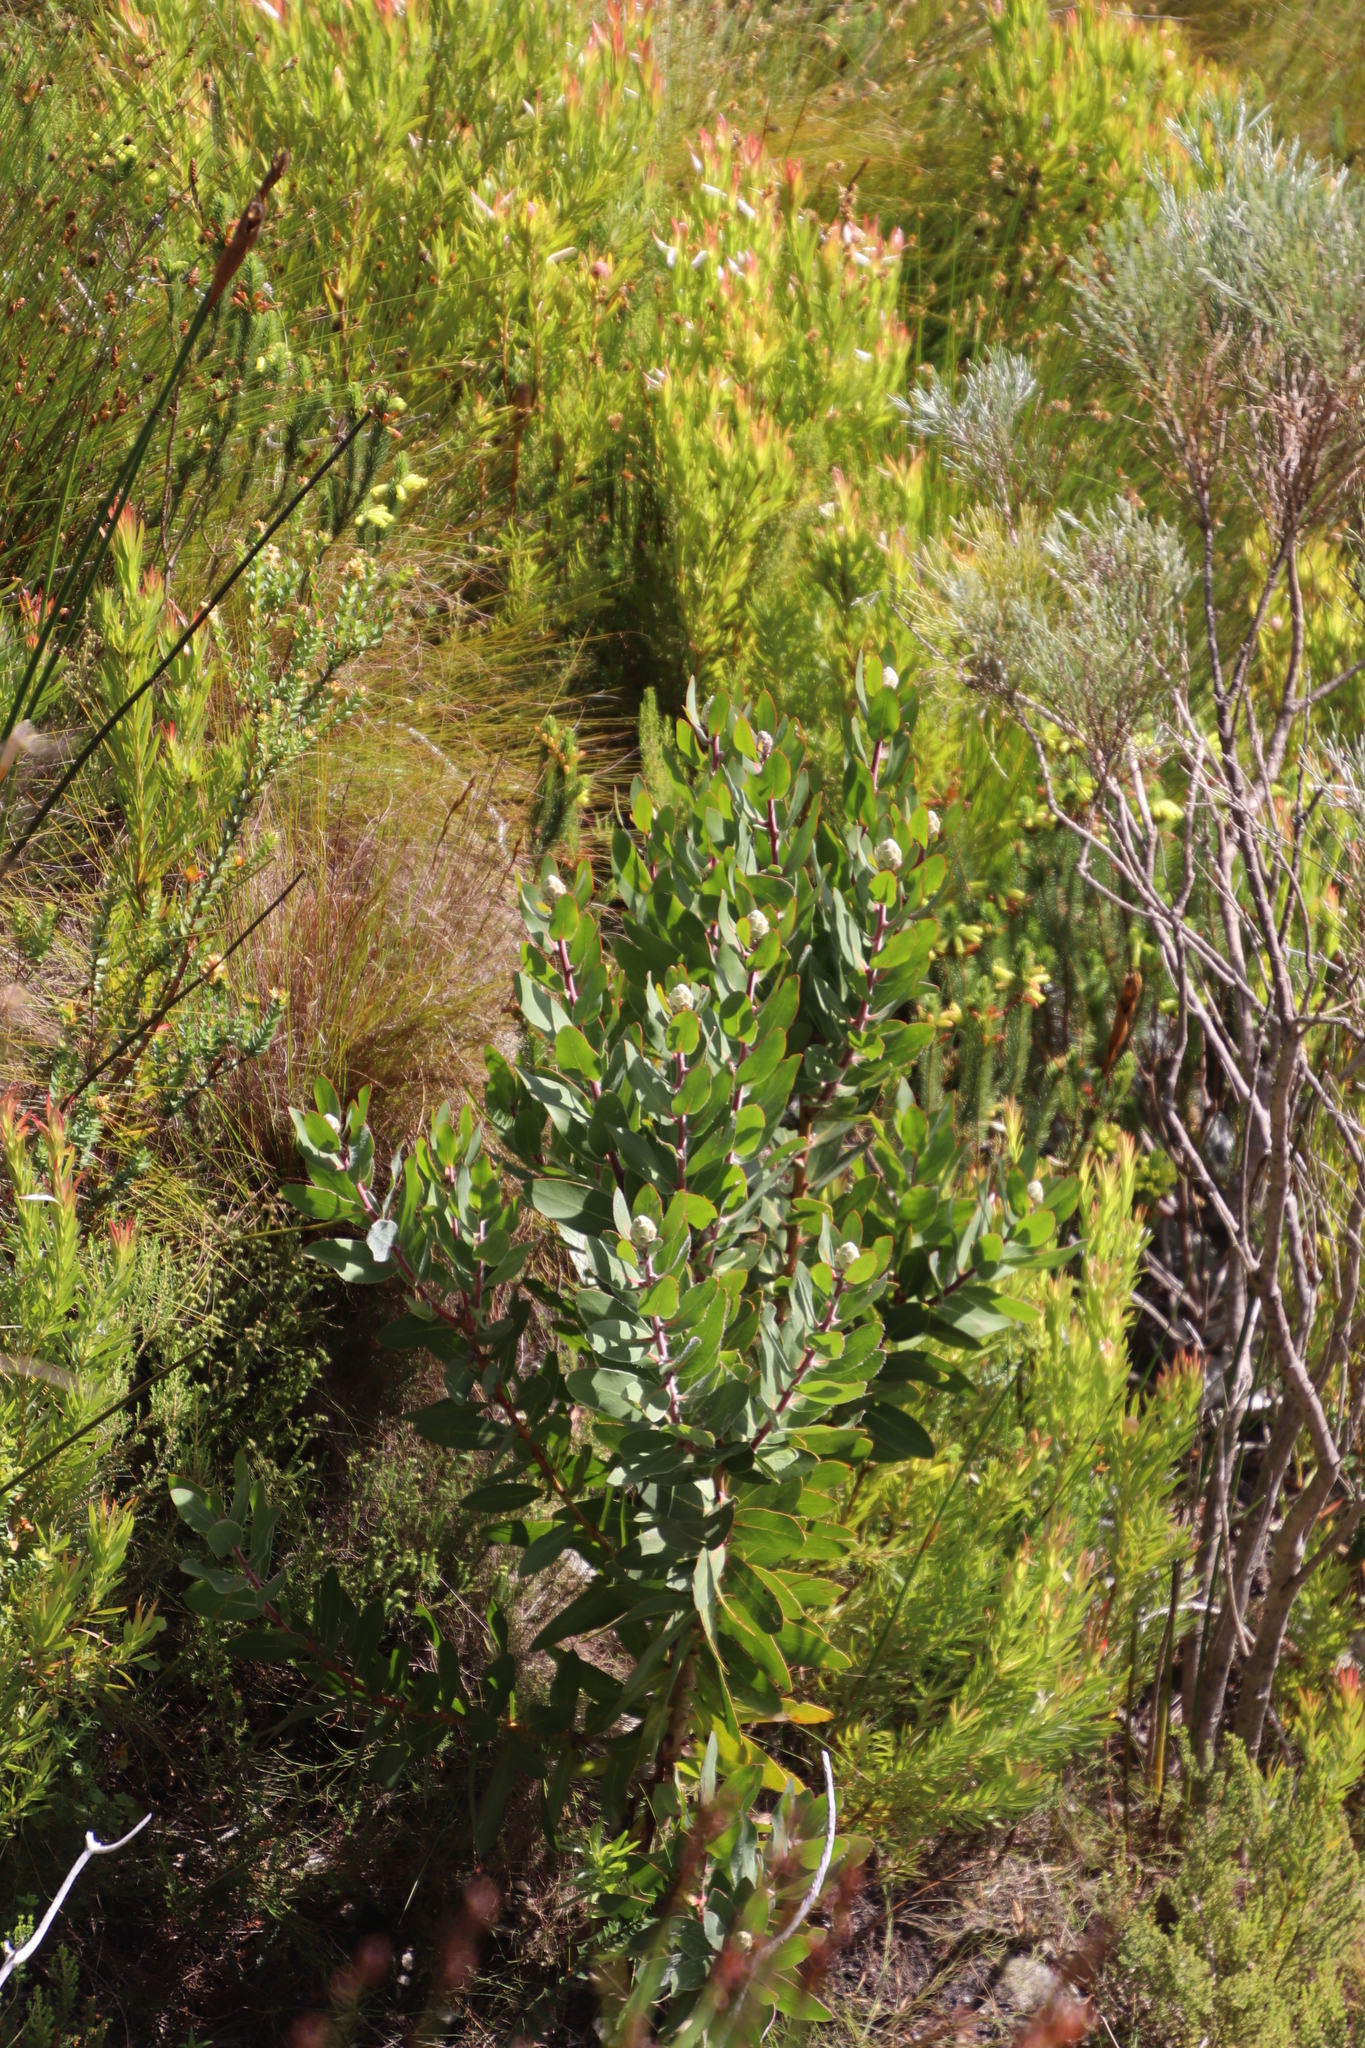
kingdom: Plantae
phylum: Tracheophyta
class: Magnoliopsida
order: Proteales
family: Proteaceae
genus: Protea
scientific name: Protea mundii
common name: Forest sugarbush
